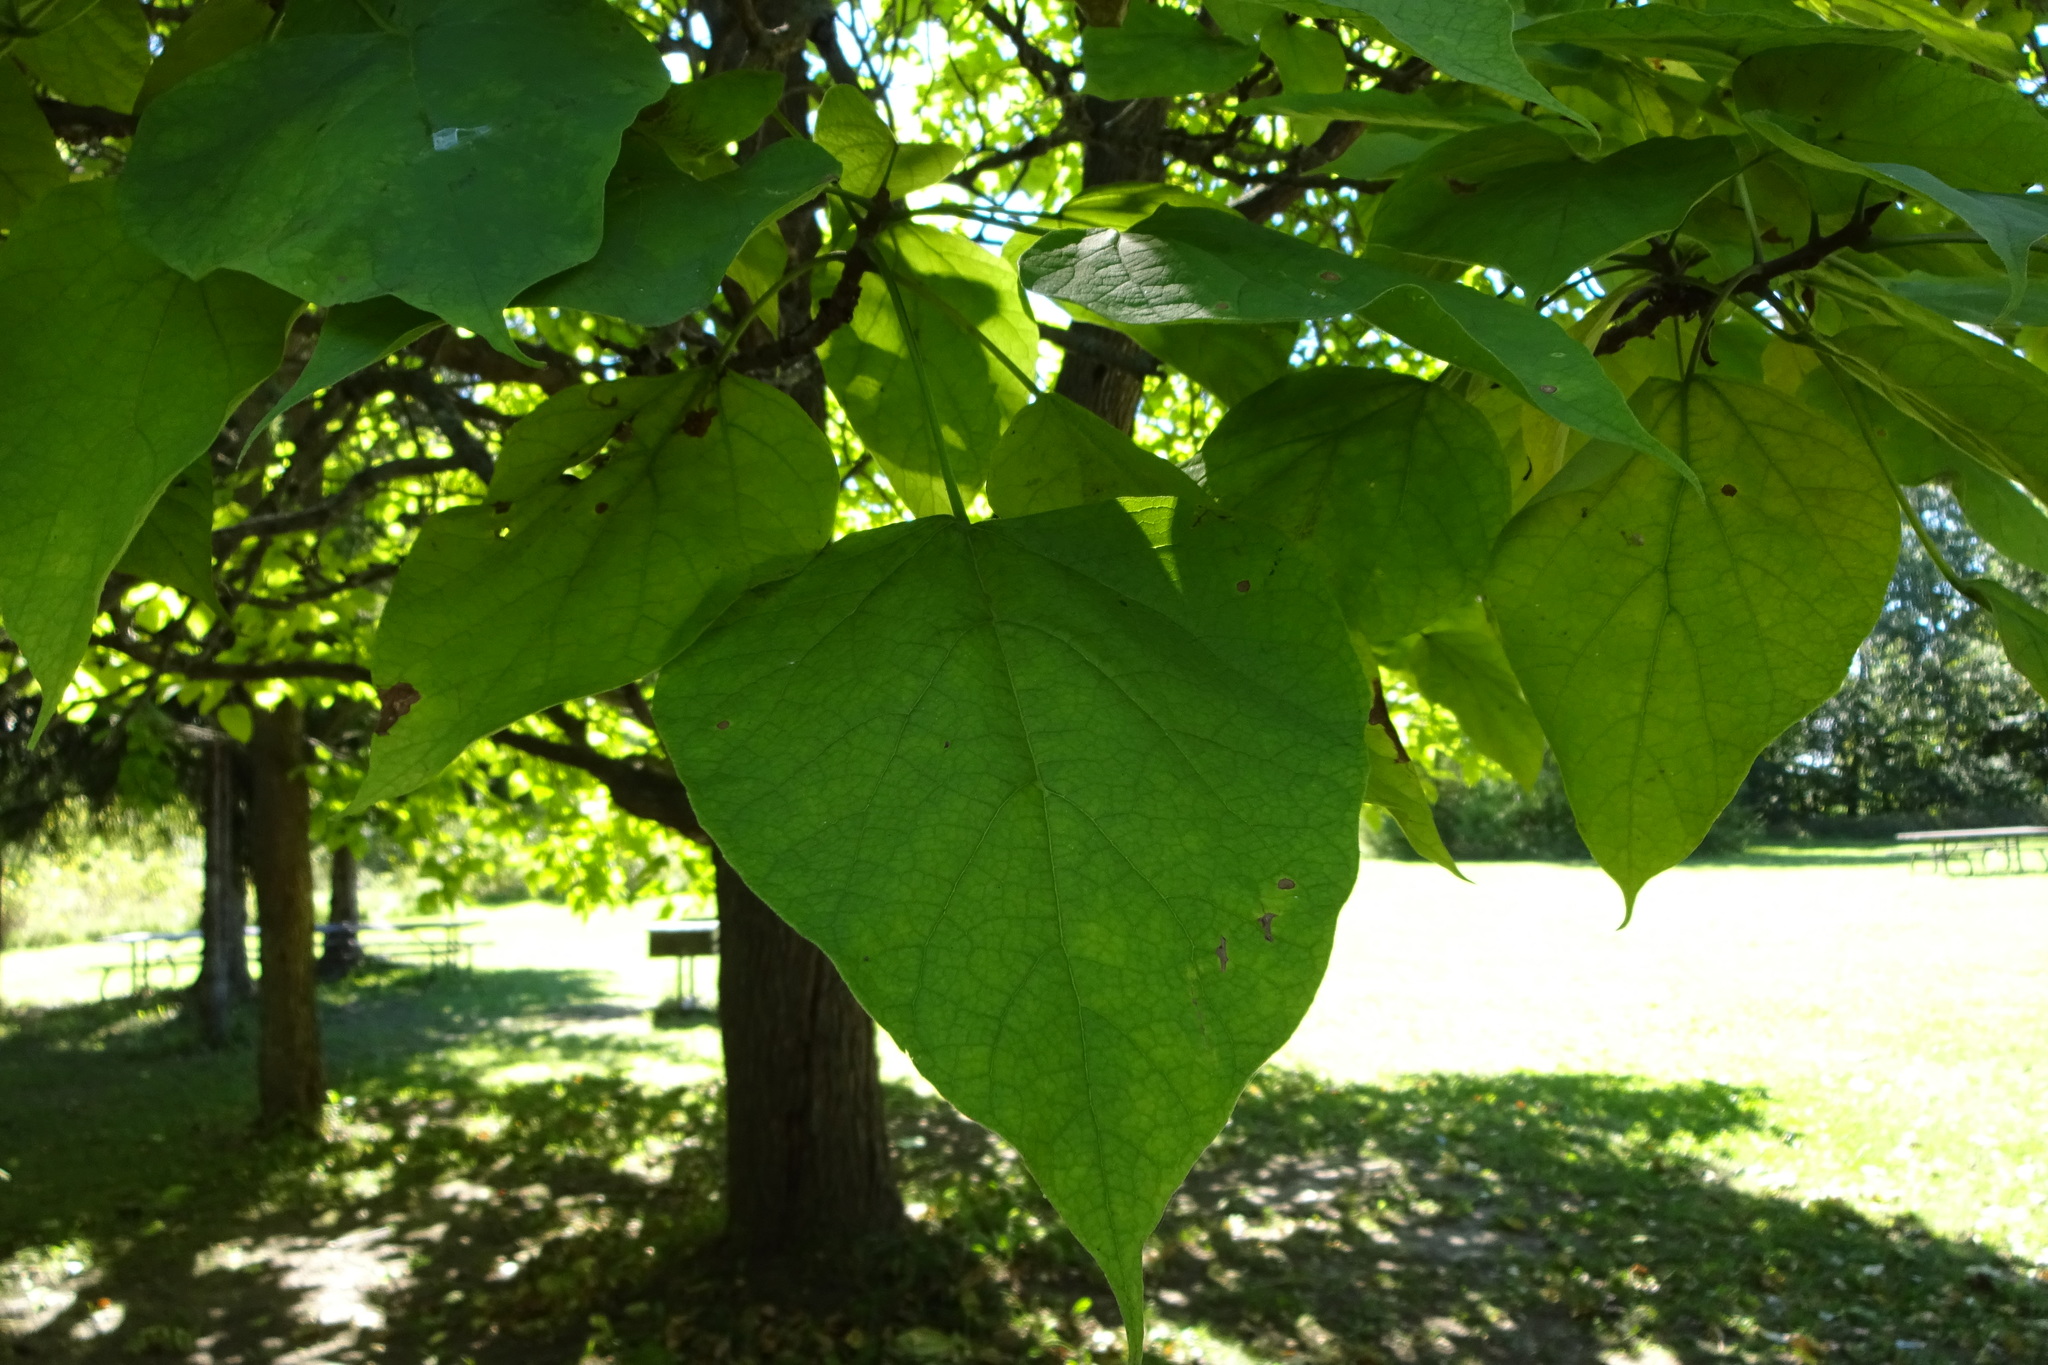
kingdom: Plantae
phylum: Tracheophyta
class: Magnoliopsida
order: Lamiales
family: Bignoniaceae
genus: Catalpa
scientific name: Catalpa speciosa
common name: Northern catalpa
